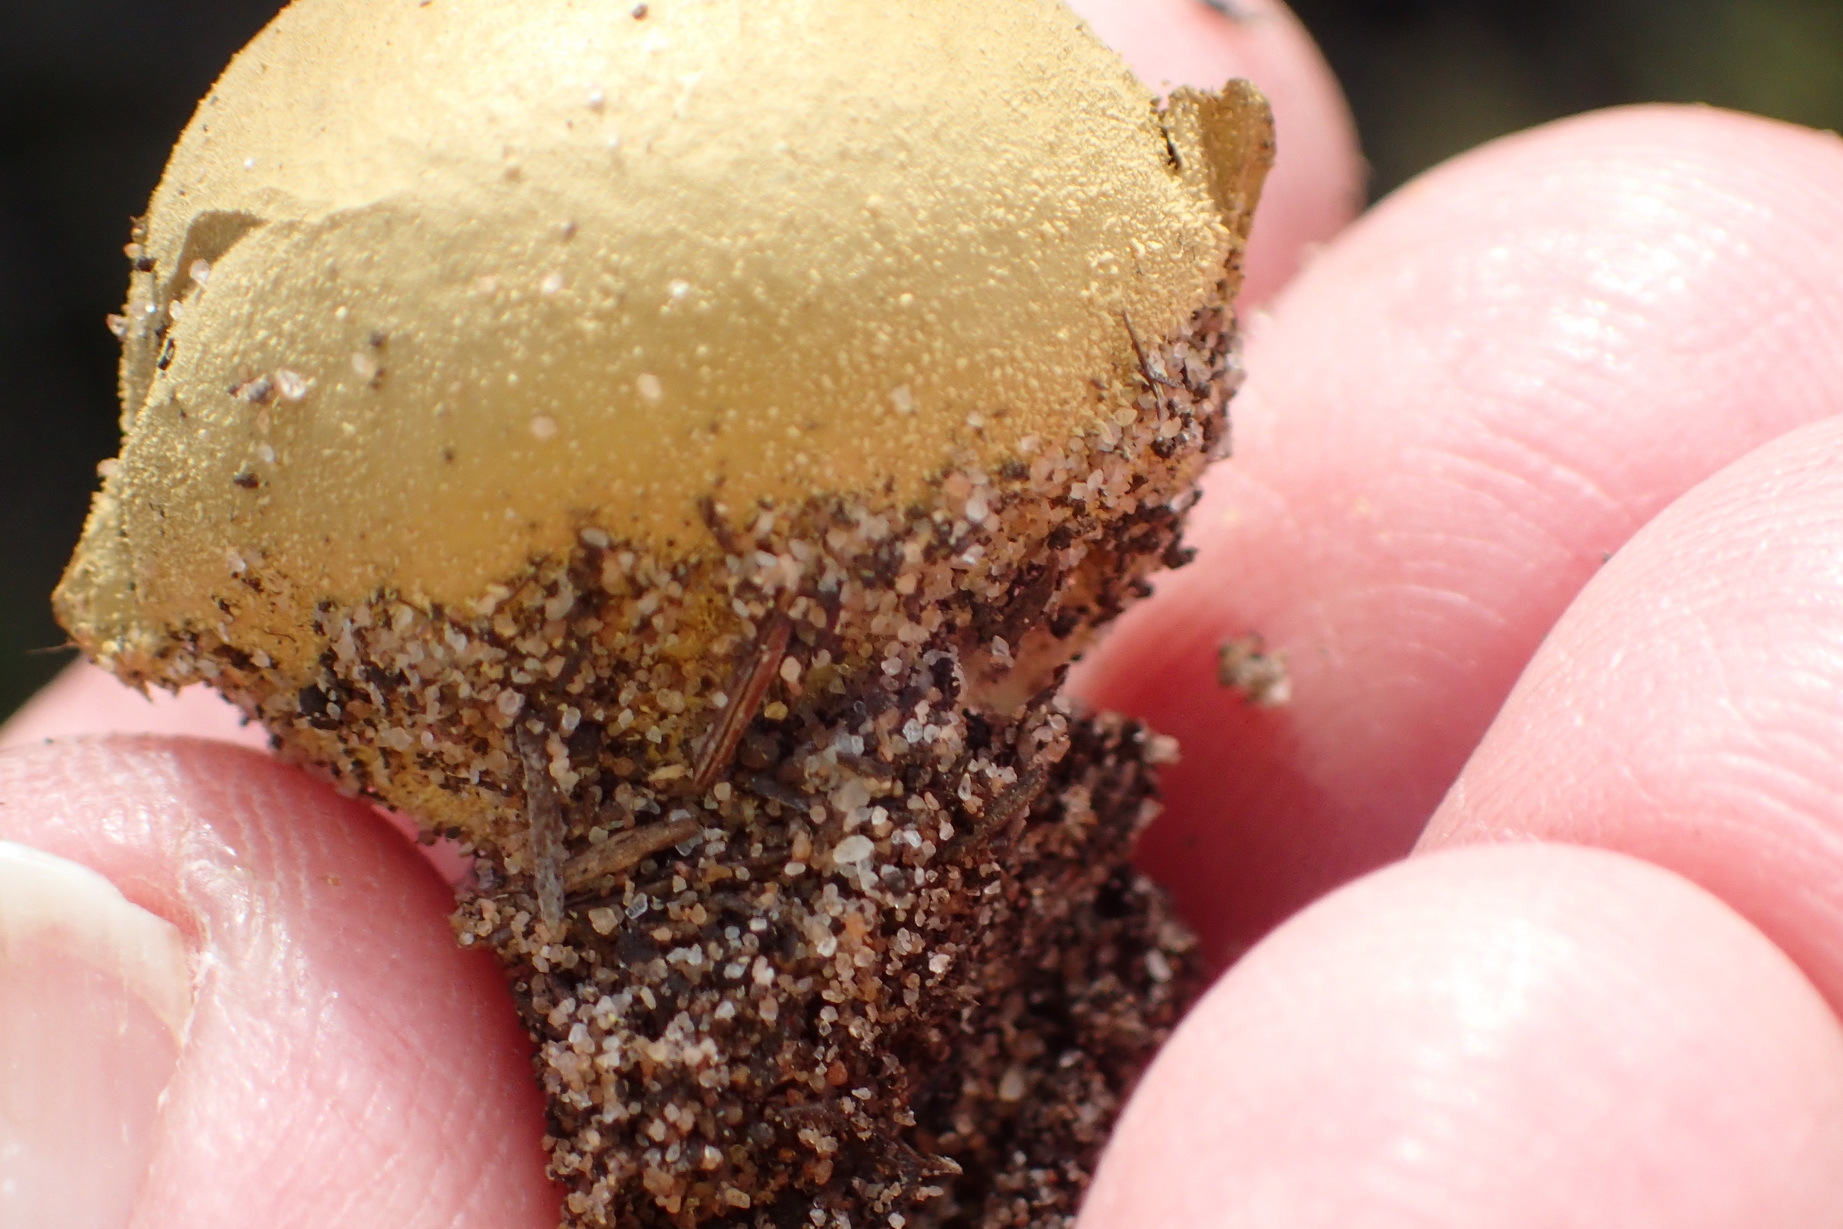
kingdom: Fungi
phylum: Basidiomycota
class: Agaricomycetes
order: Boletales
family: Sclerodermataceae
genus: Scleroderma
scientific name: Scleroderma citrinum
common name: Common earthball
